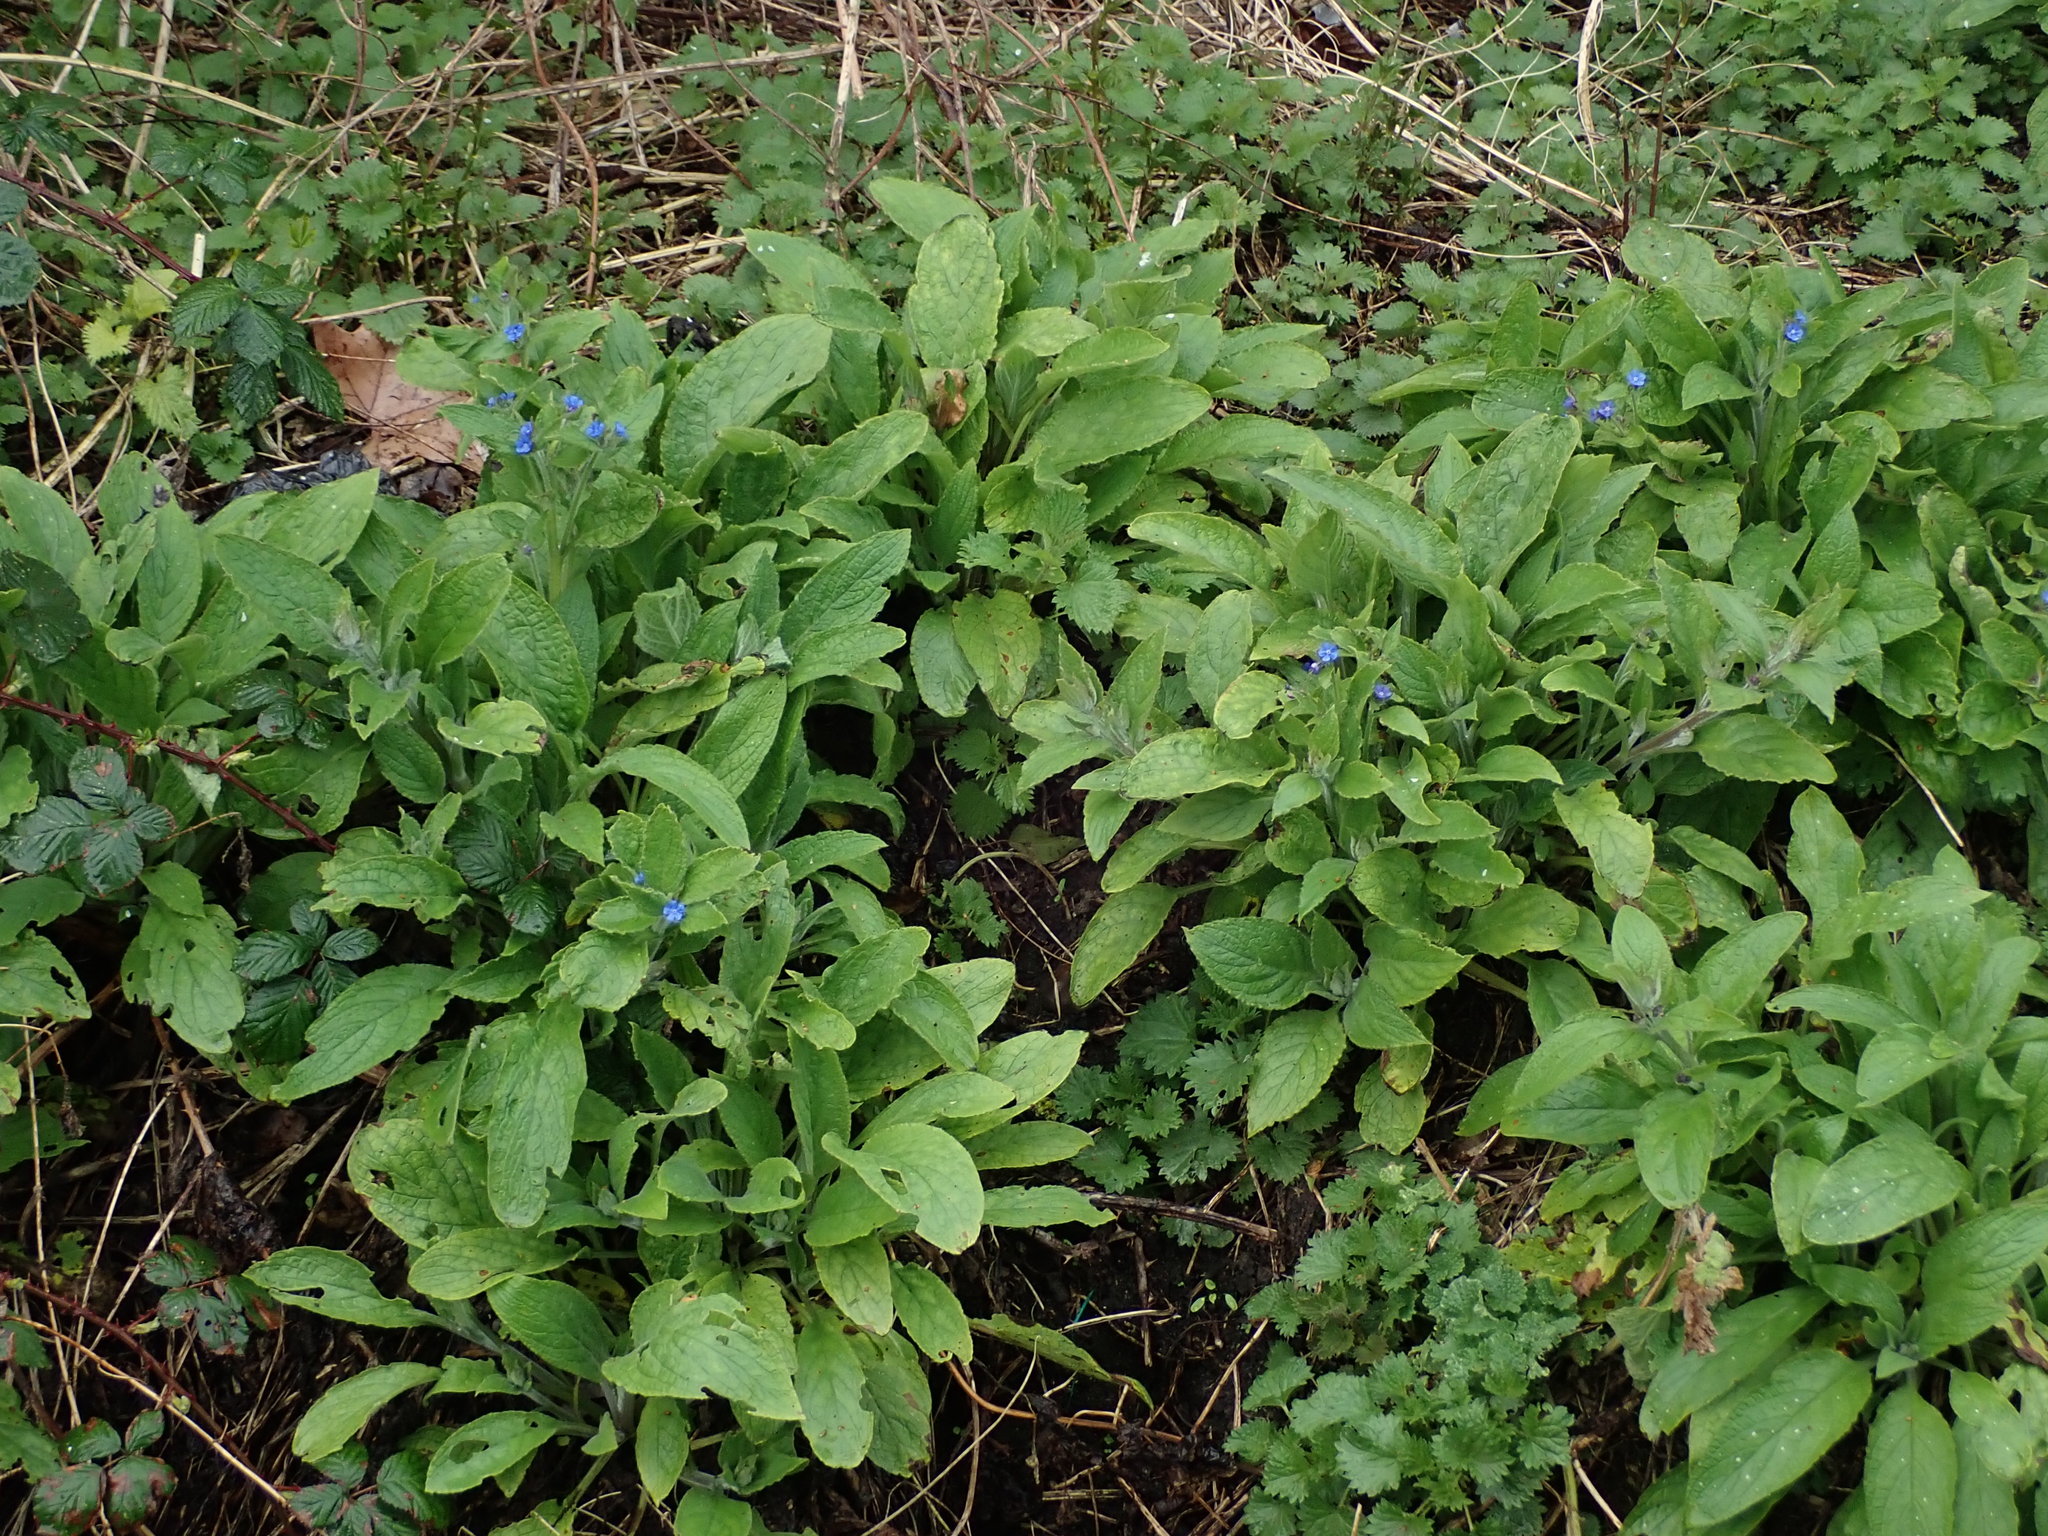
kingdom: Plantae
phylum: Tracheophyta
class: Magnoliopsida
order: Boraginales
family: Boraginaceae
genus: Pentaglottis
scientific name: Pentaglottis sempervirens
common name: Green alkanet
